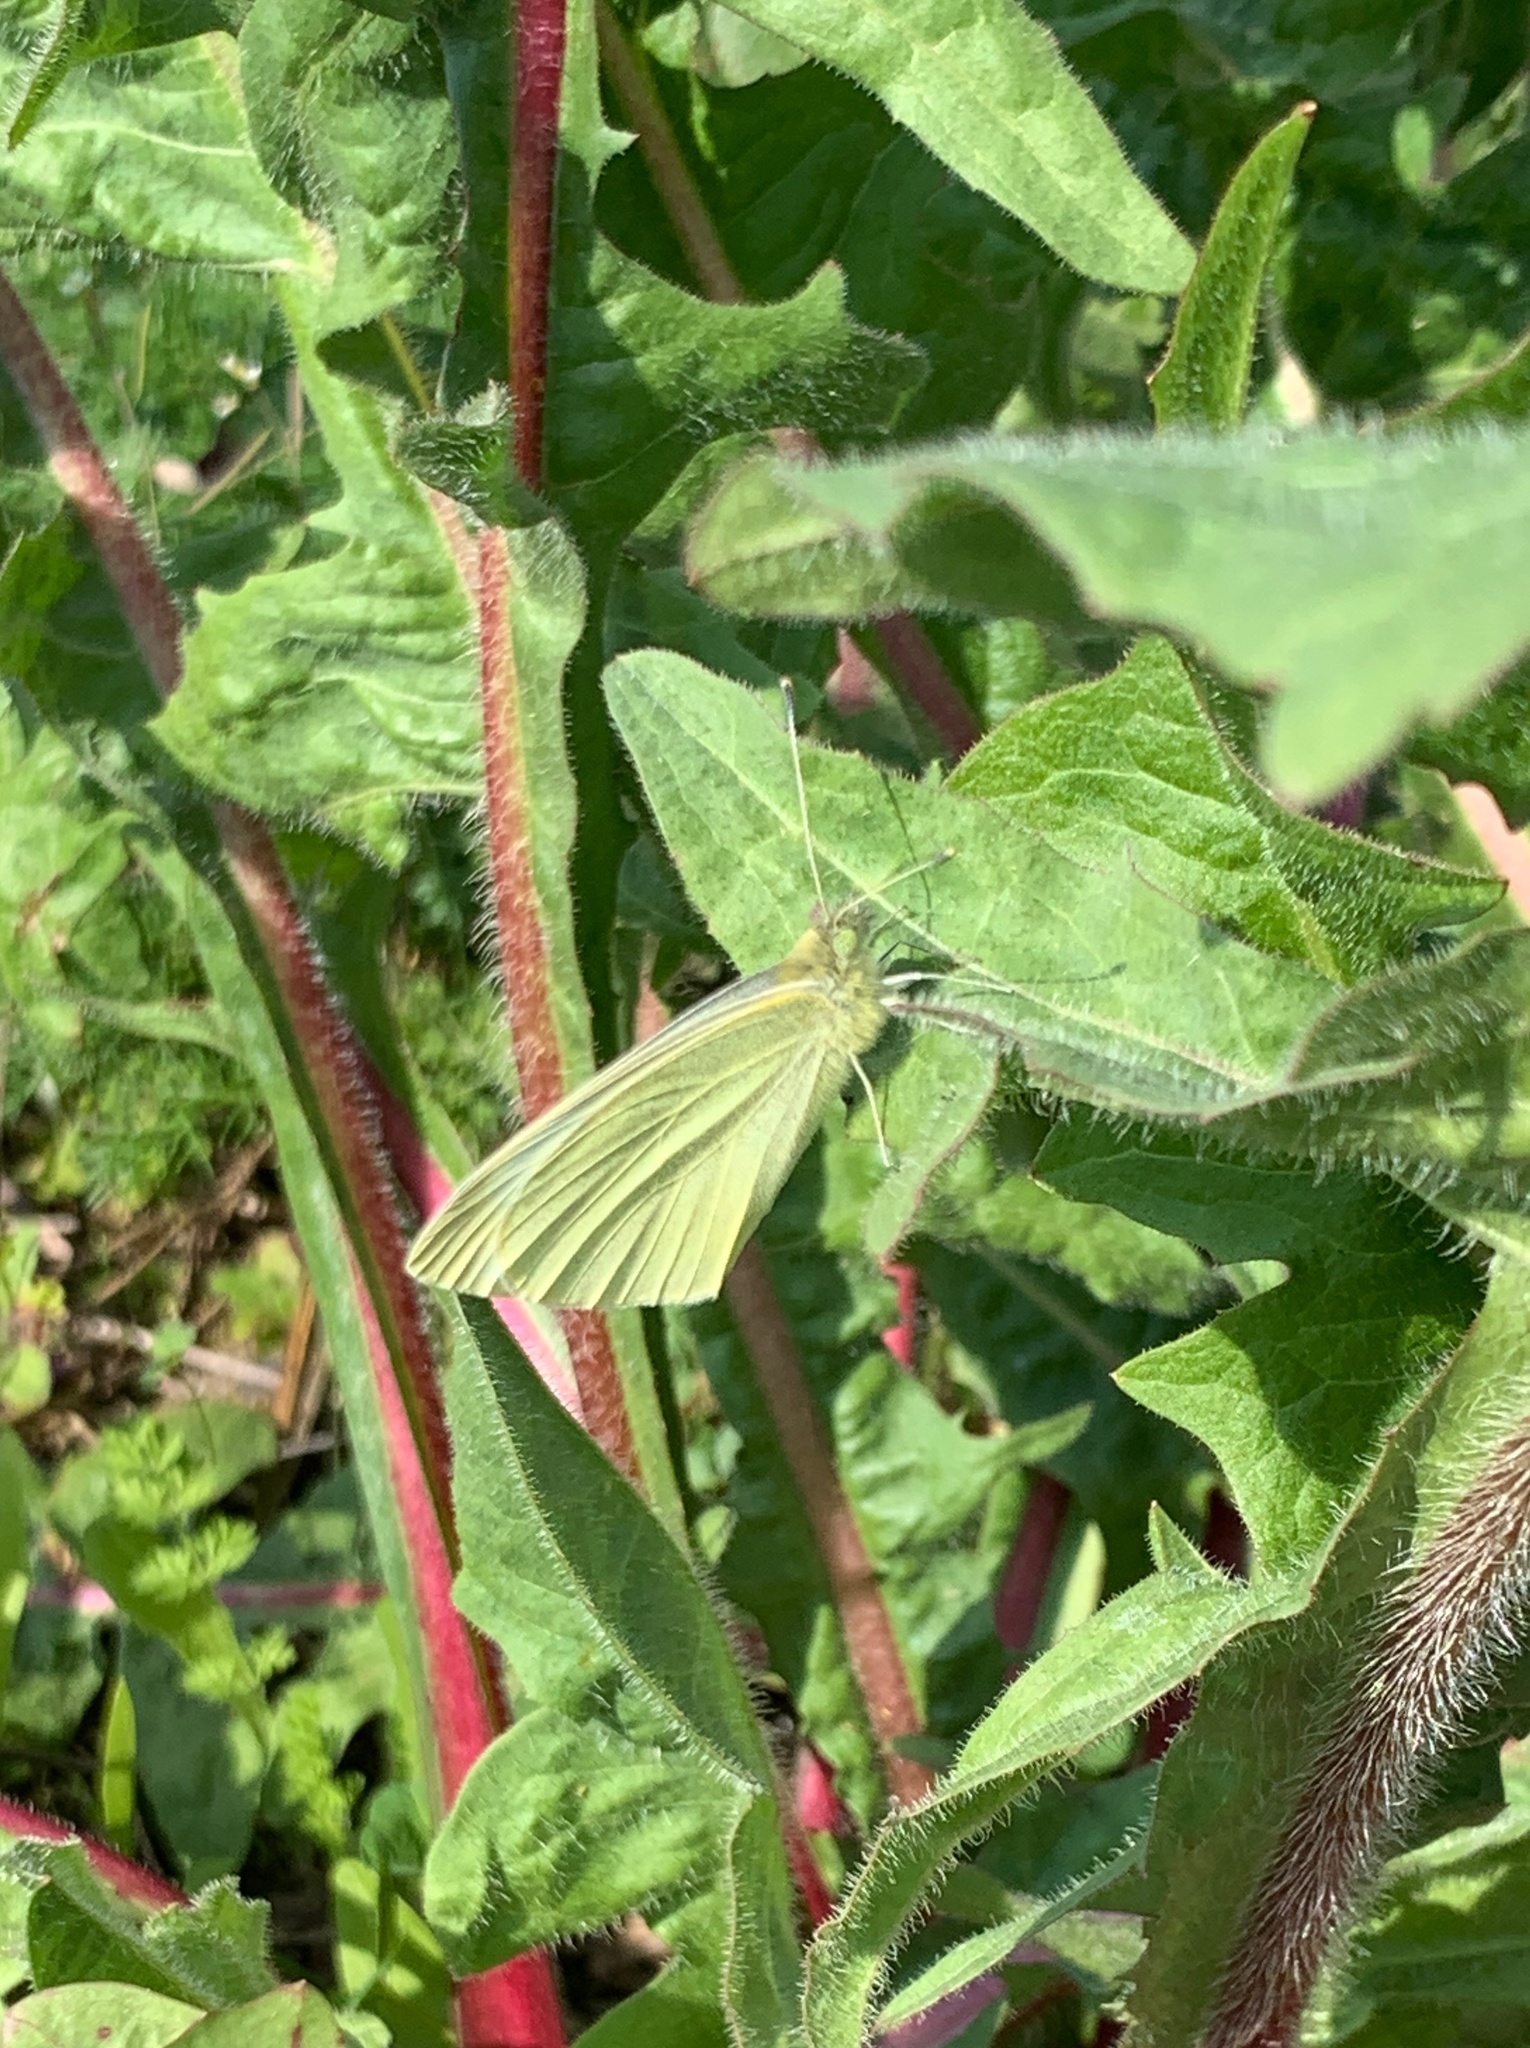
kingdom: Animalia
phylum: Arthropoda
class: Insecta
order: Lepidoptera
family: Pieridae
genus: Pieris
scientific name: Pieris rapae
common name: Small white
